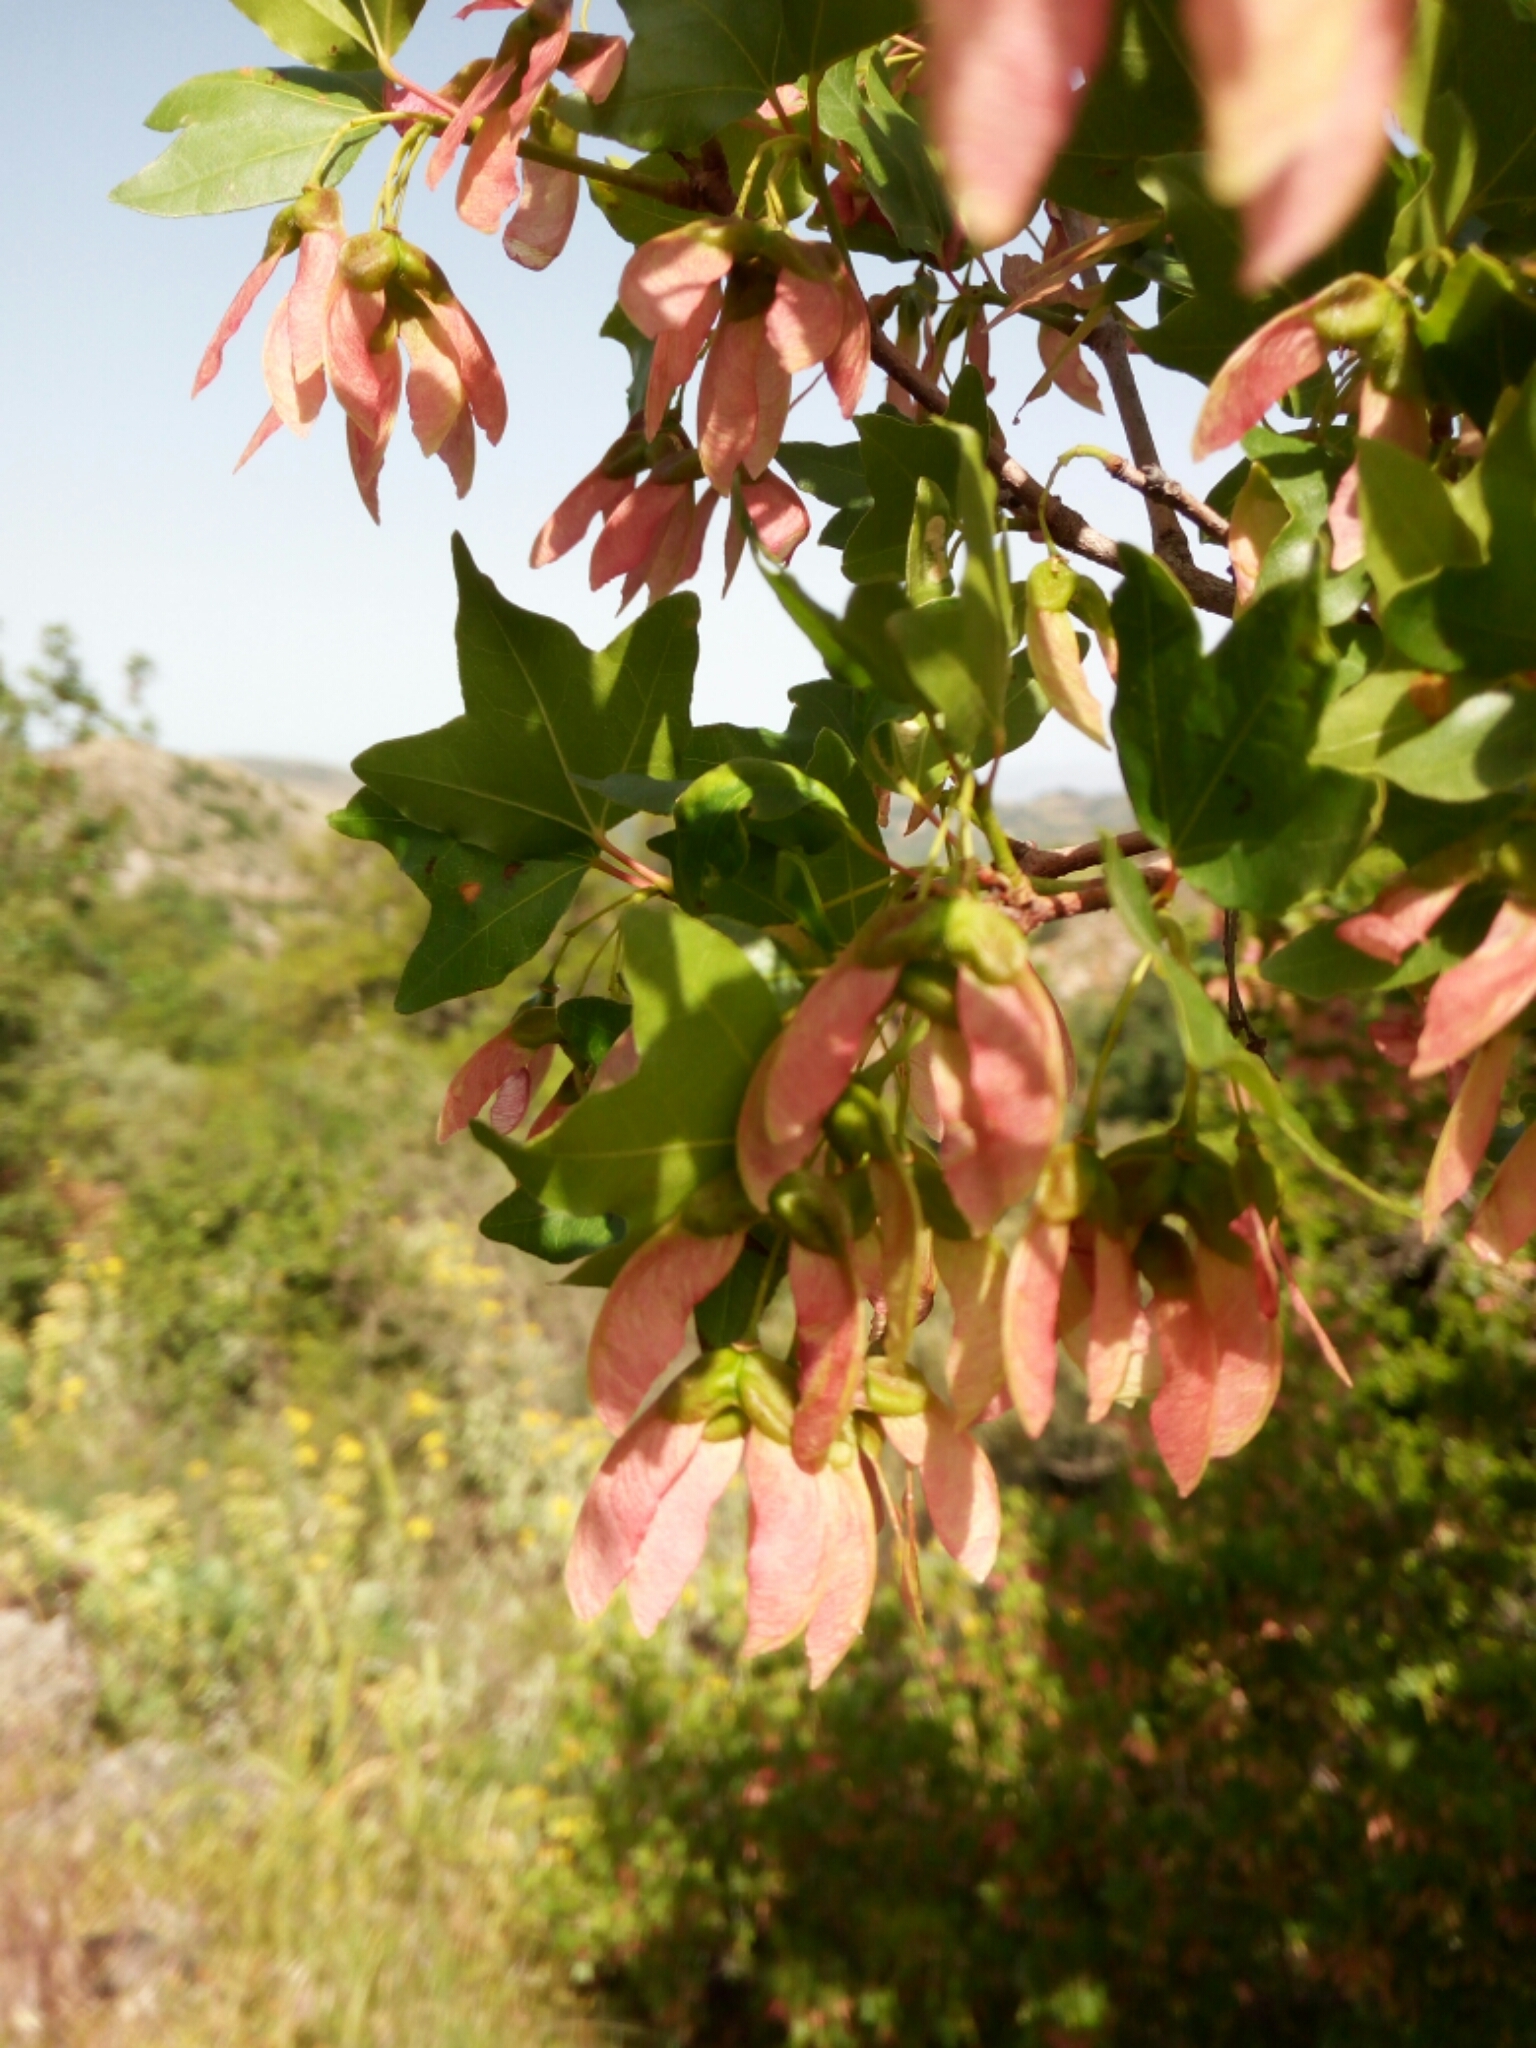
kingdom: Plantae
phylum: Tracheophyta
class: Magnoliopsida
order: Sapindales
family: Sapindaceae
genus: Acer
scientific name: Acer sempervirens
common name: Cretan maple
